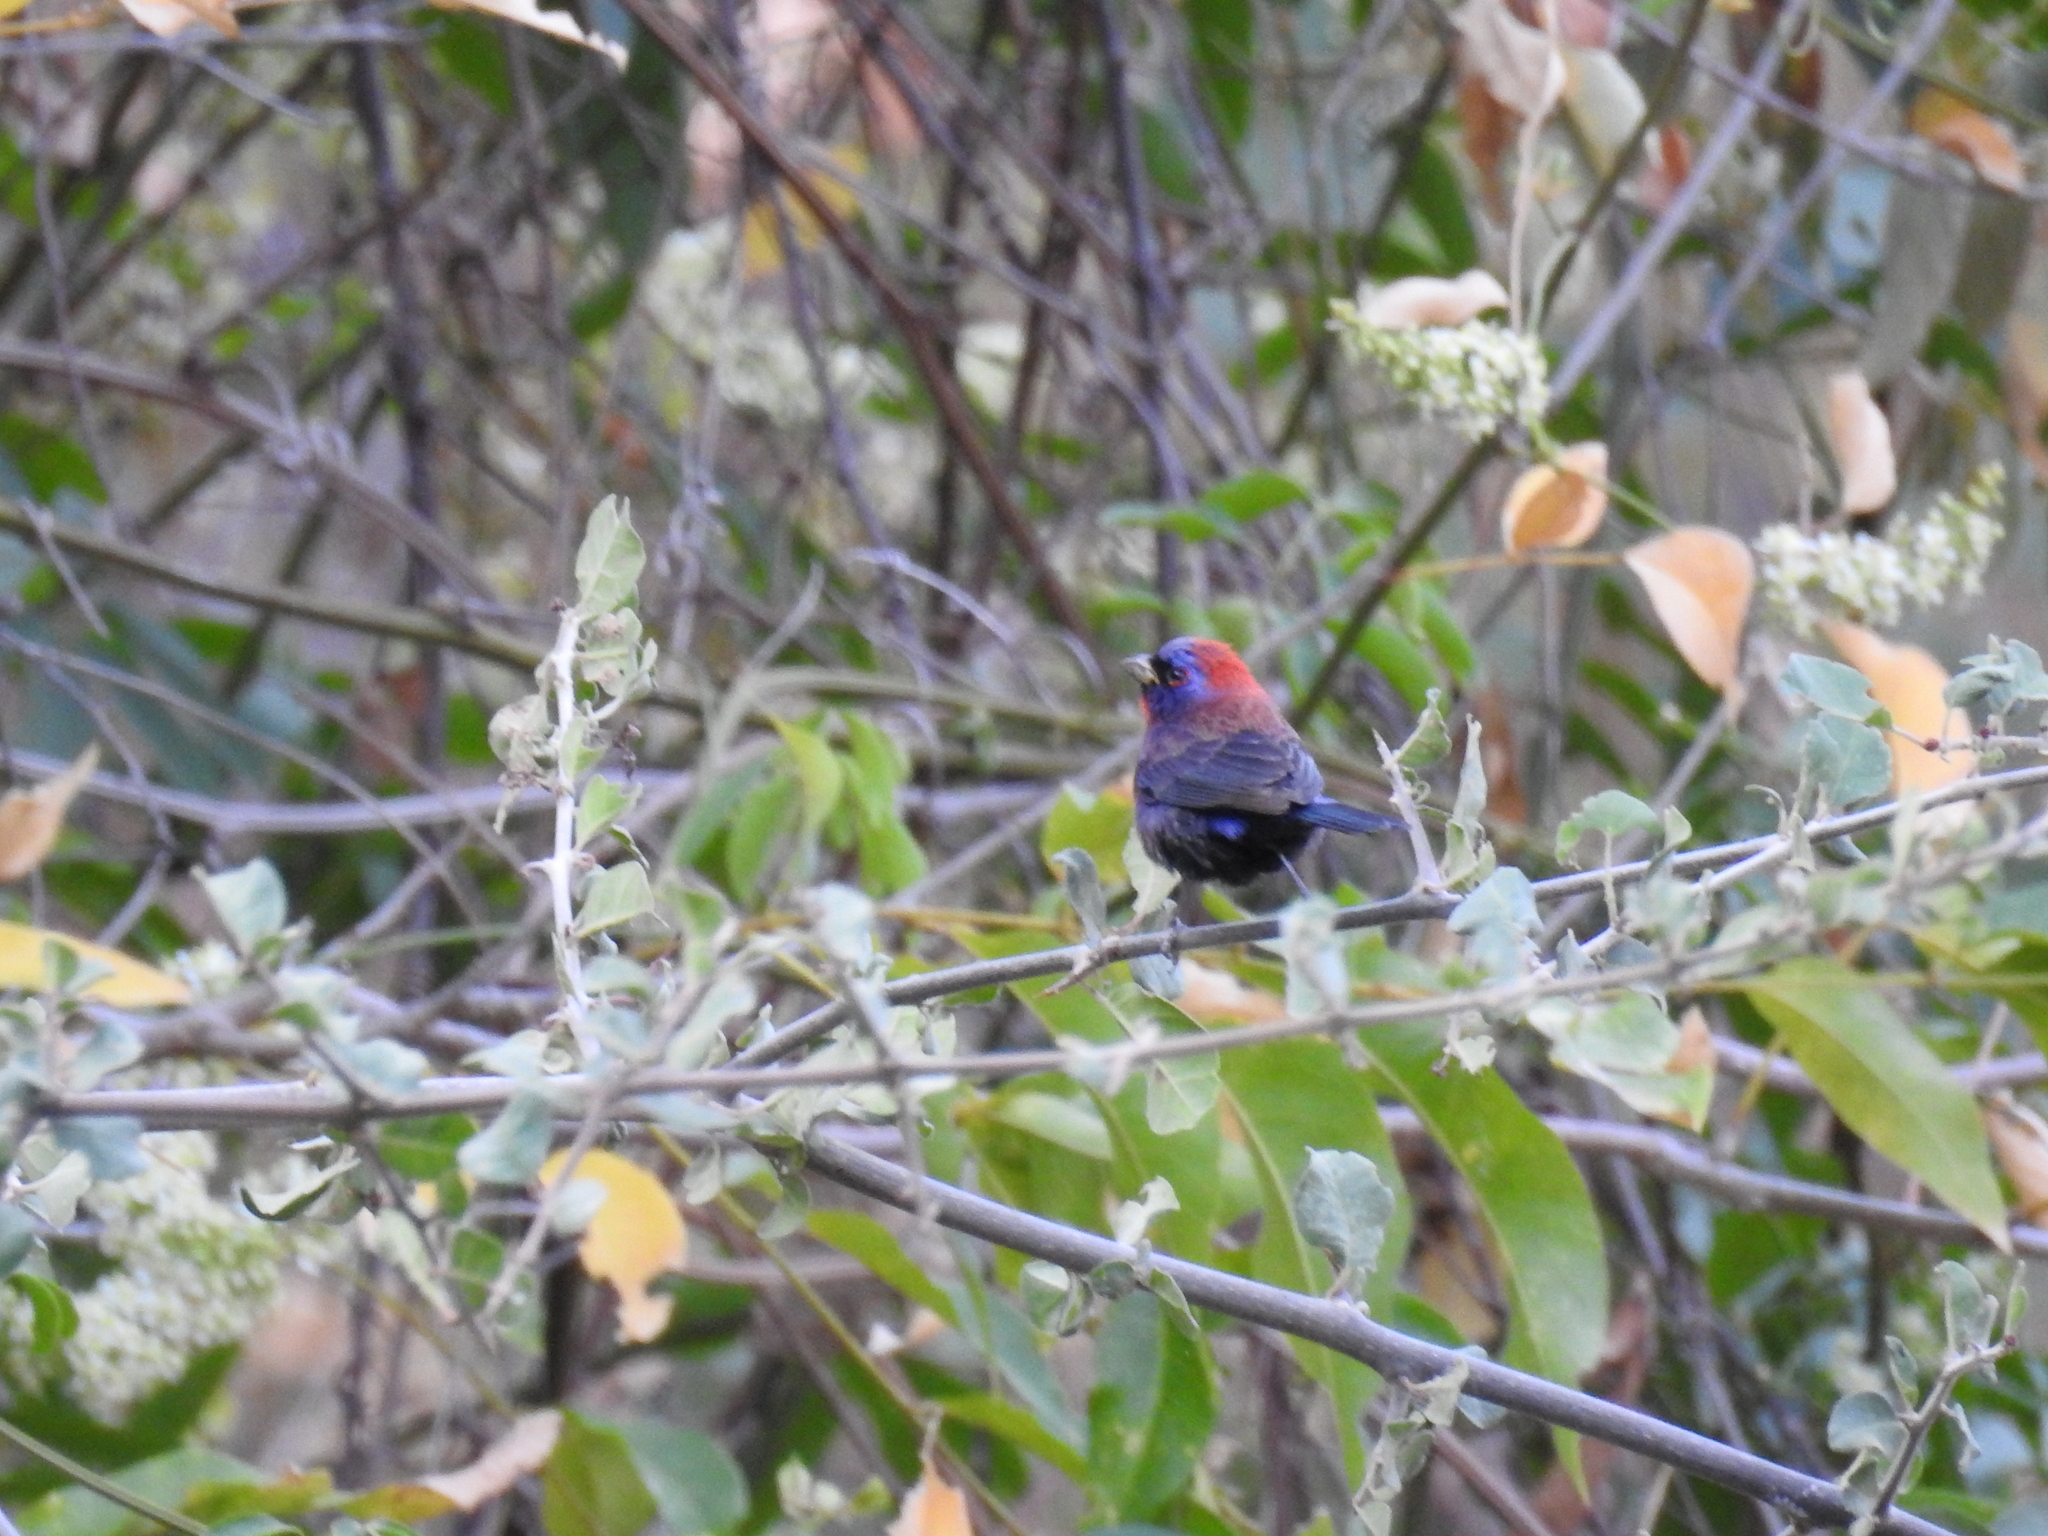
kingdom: Animalia
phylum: Chordata
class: Aves
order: Passeriformes
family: Cardinalidae
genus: Passerina
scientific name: Passerina versicolor
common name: Varied bunting
